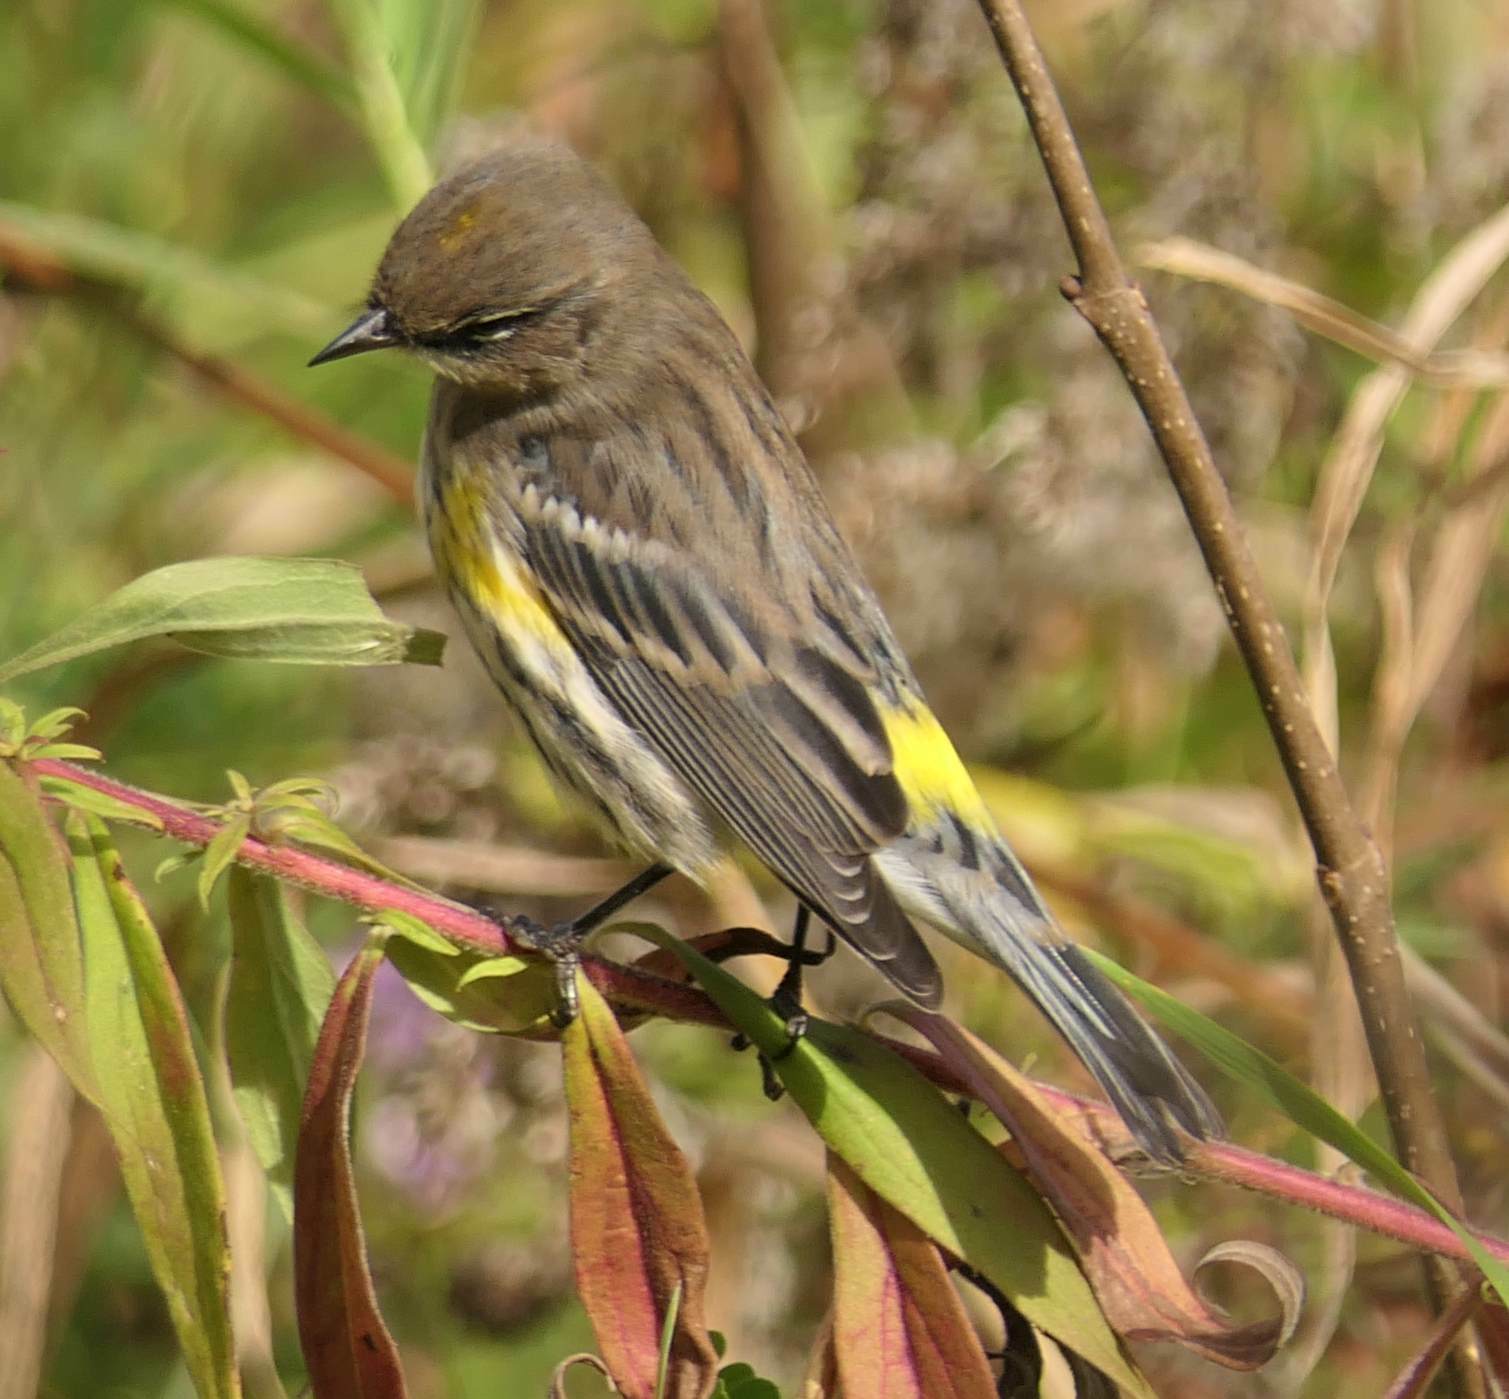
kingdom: Animalia
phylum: Chordata
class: Aves
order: Passeriformes
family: Parulidae
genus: Setophaga
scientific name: Setophaga coronata
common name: Myrtle warbler
